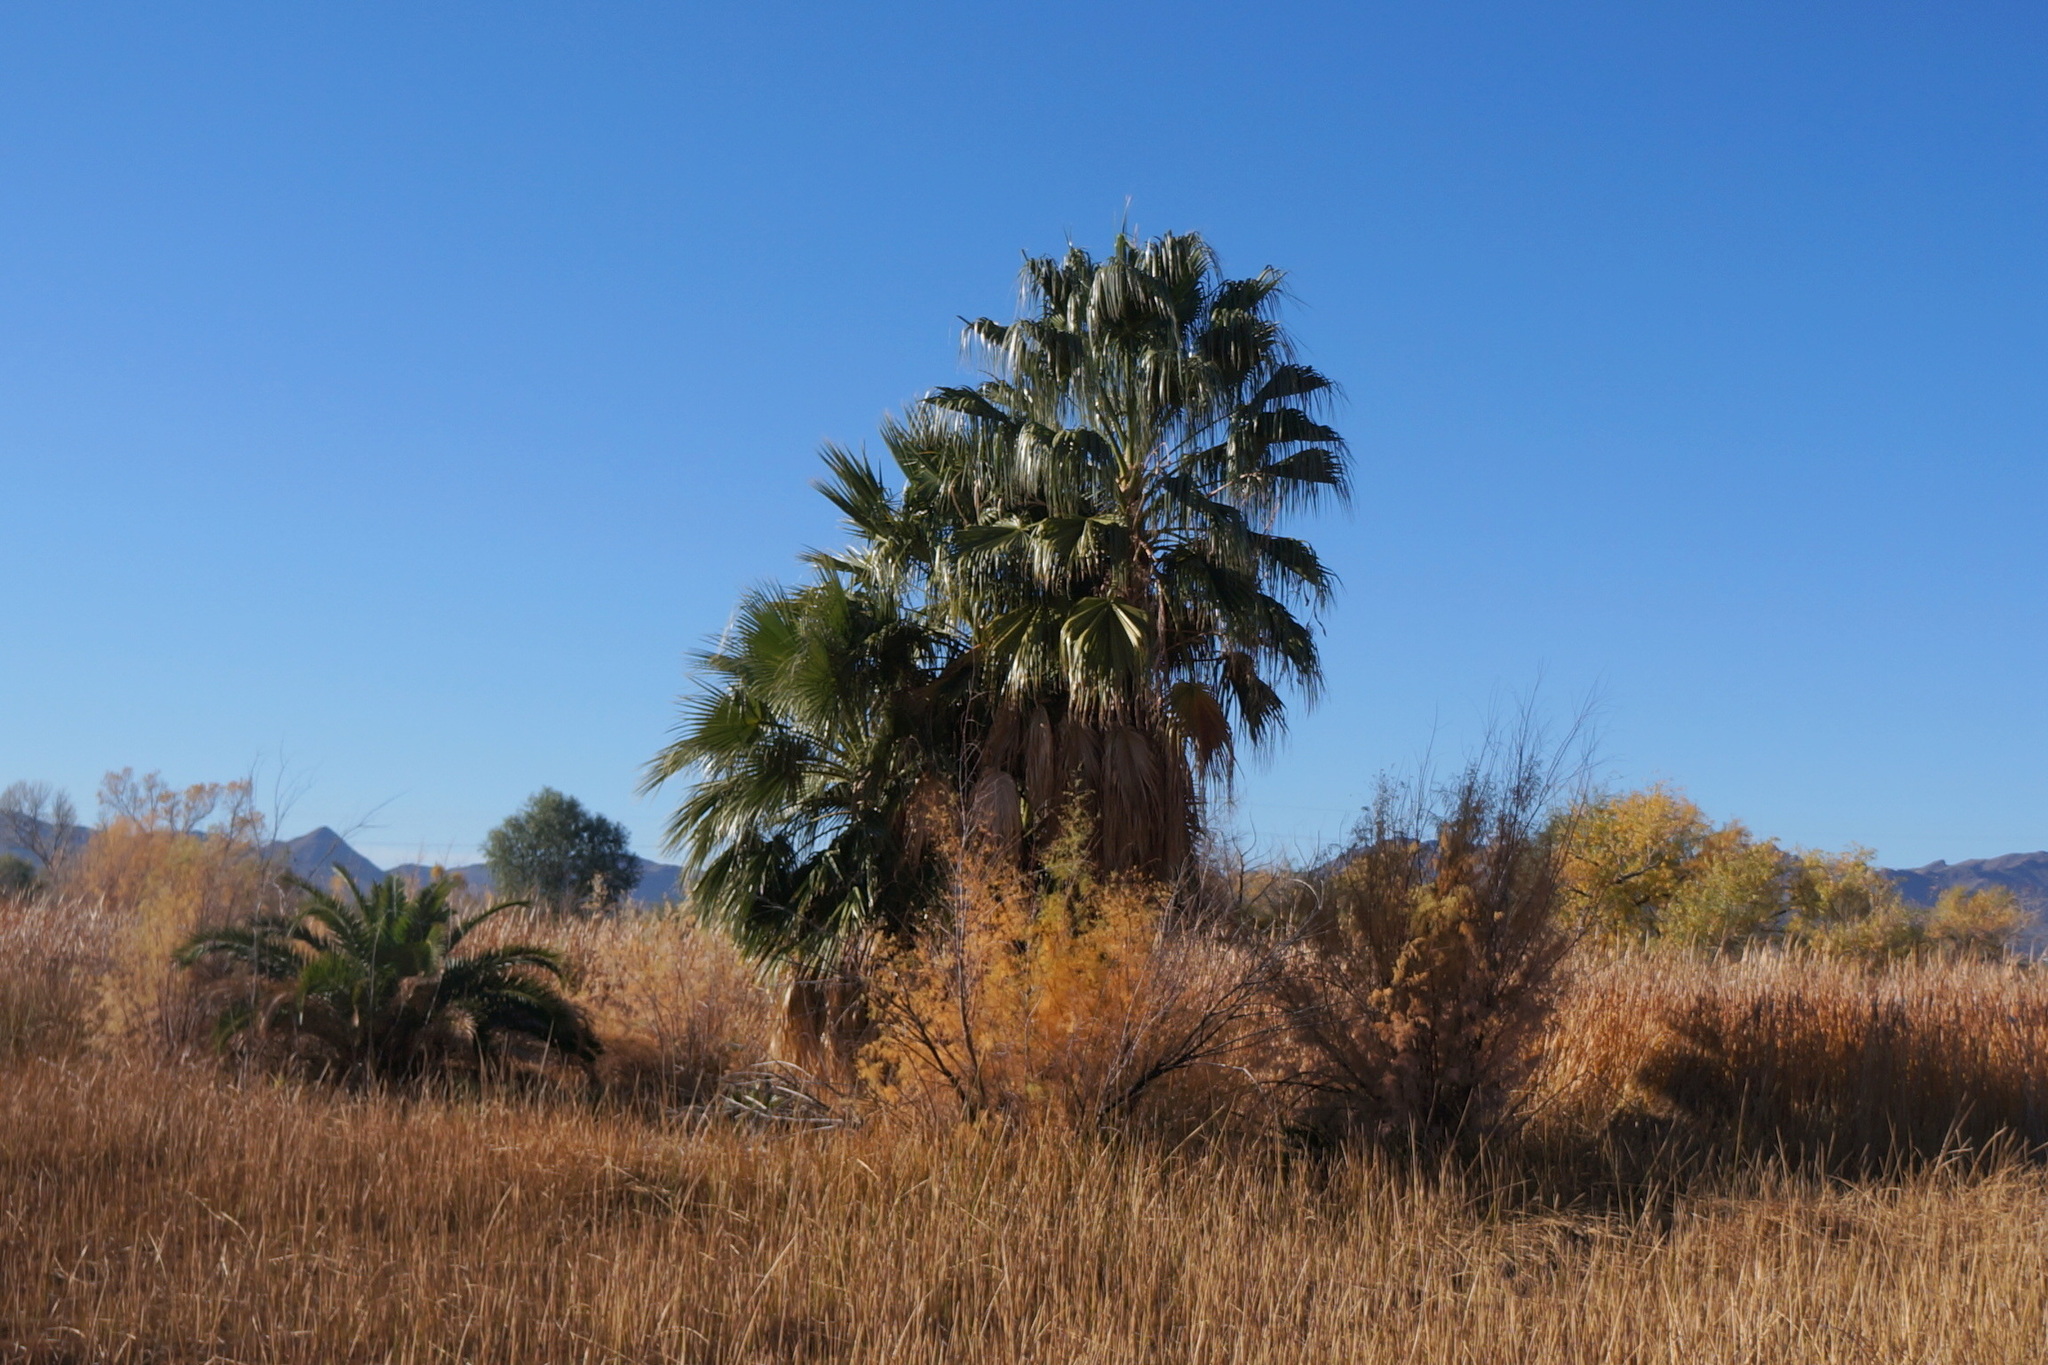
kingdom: Plantae
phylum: Tracheophyta
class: Liliopsida
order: Arecales
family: Arecaceae
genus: Washingtonia
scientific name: Washingtonia filibusta
